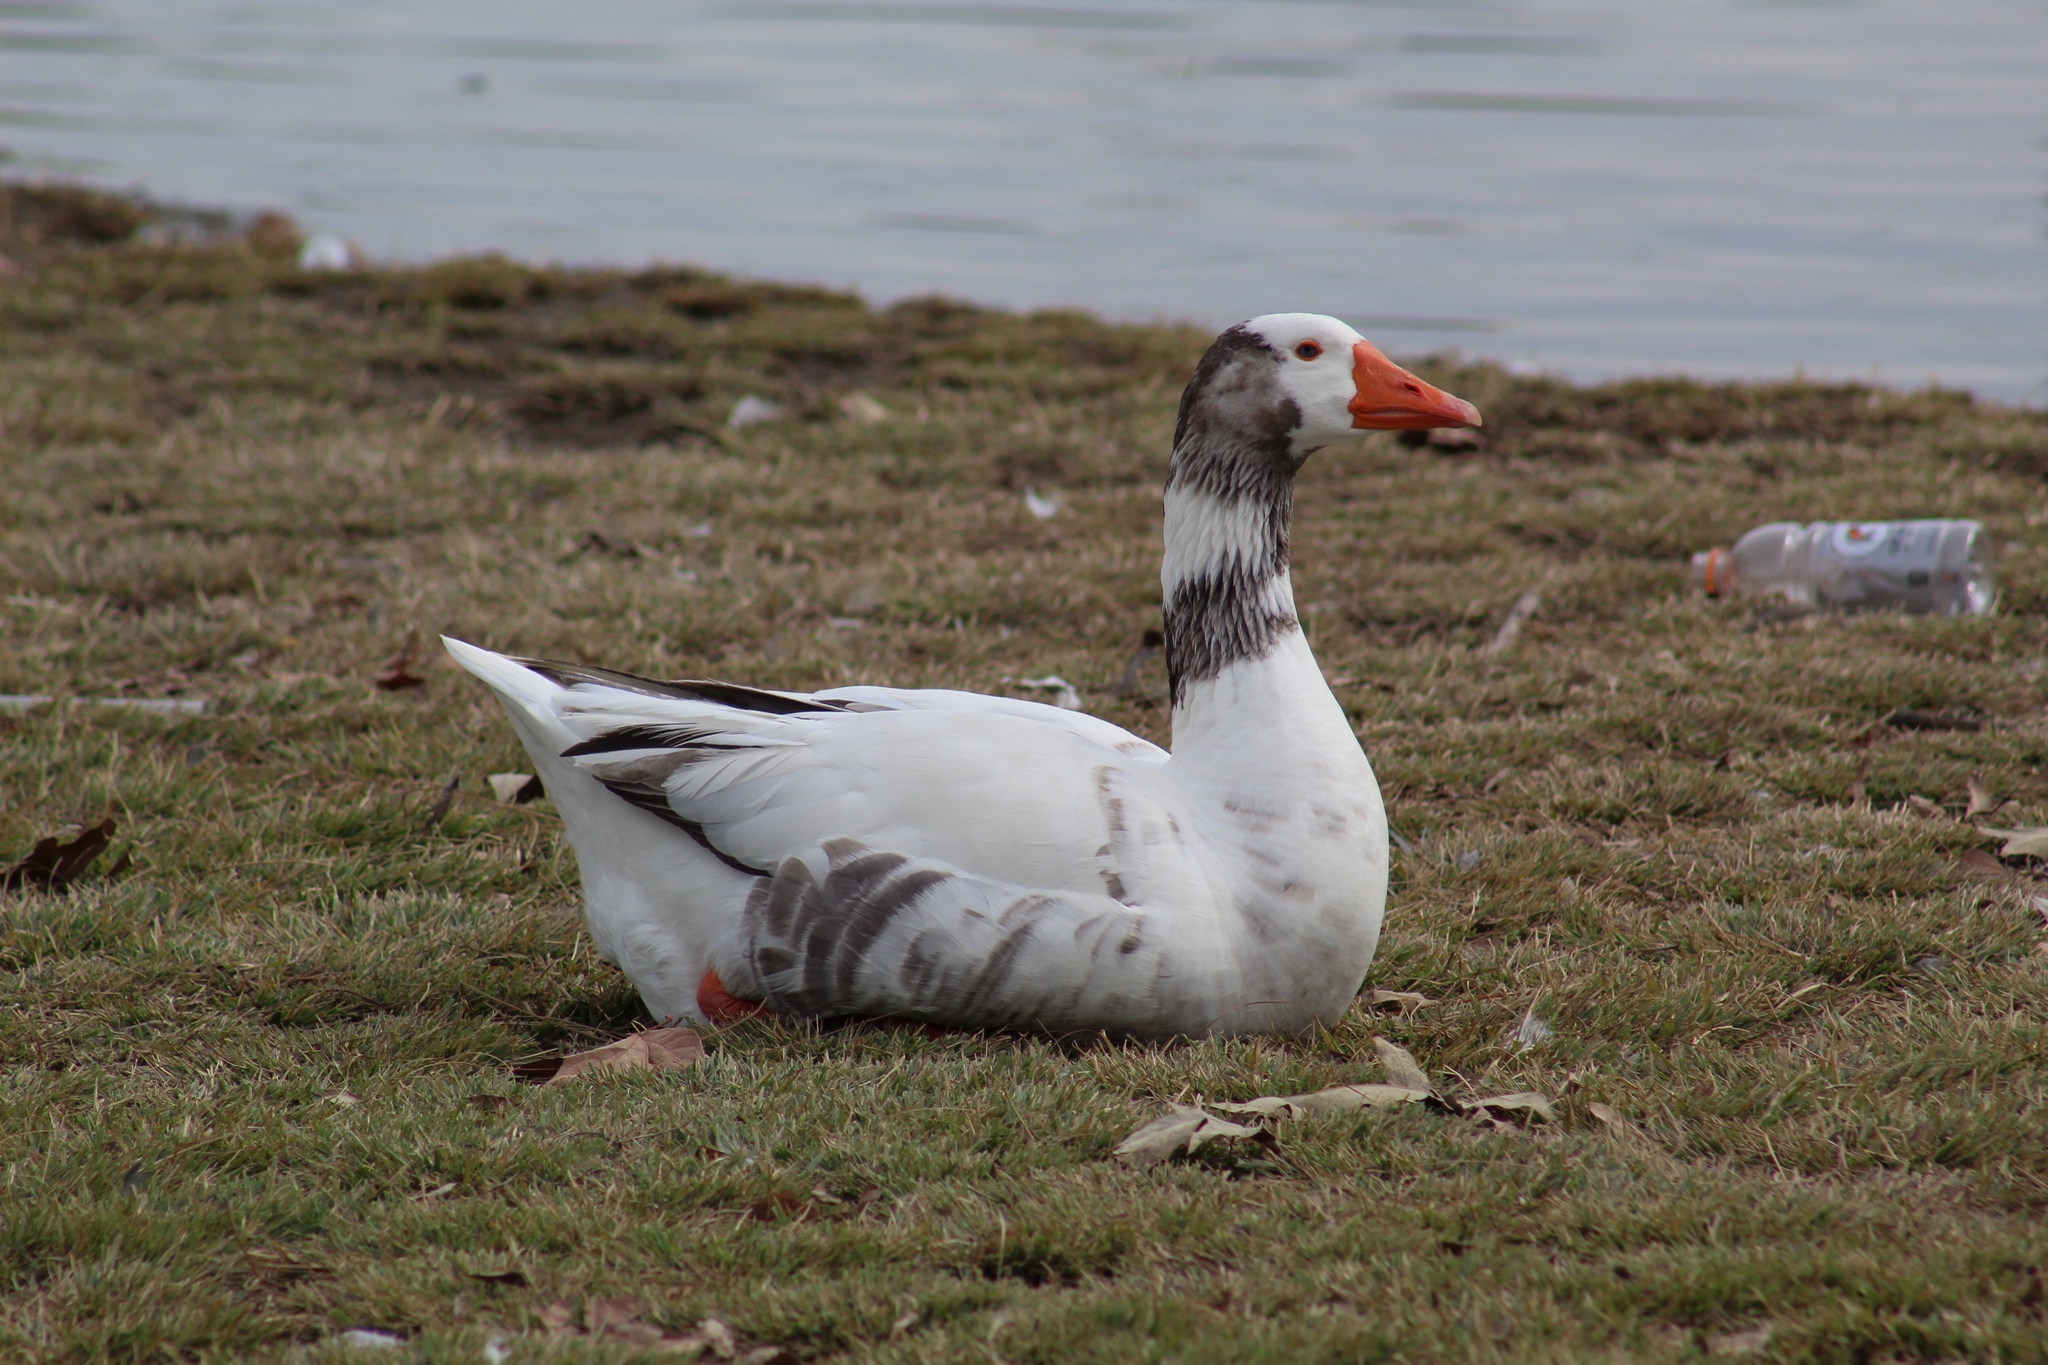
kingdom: Animalia
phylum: Chordata
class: Aves
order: Anseriformes
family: Anatidae
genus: Anser
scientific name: Anser
